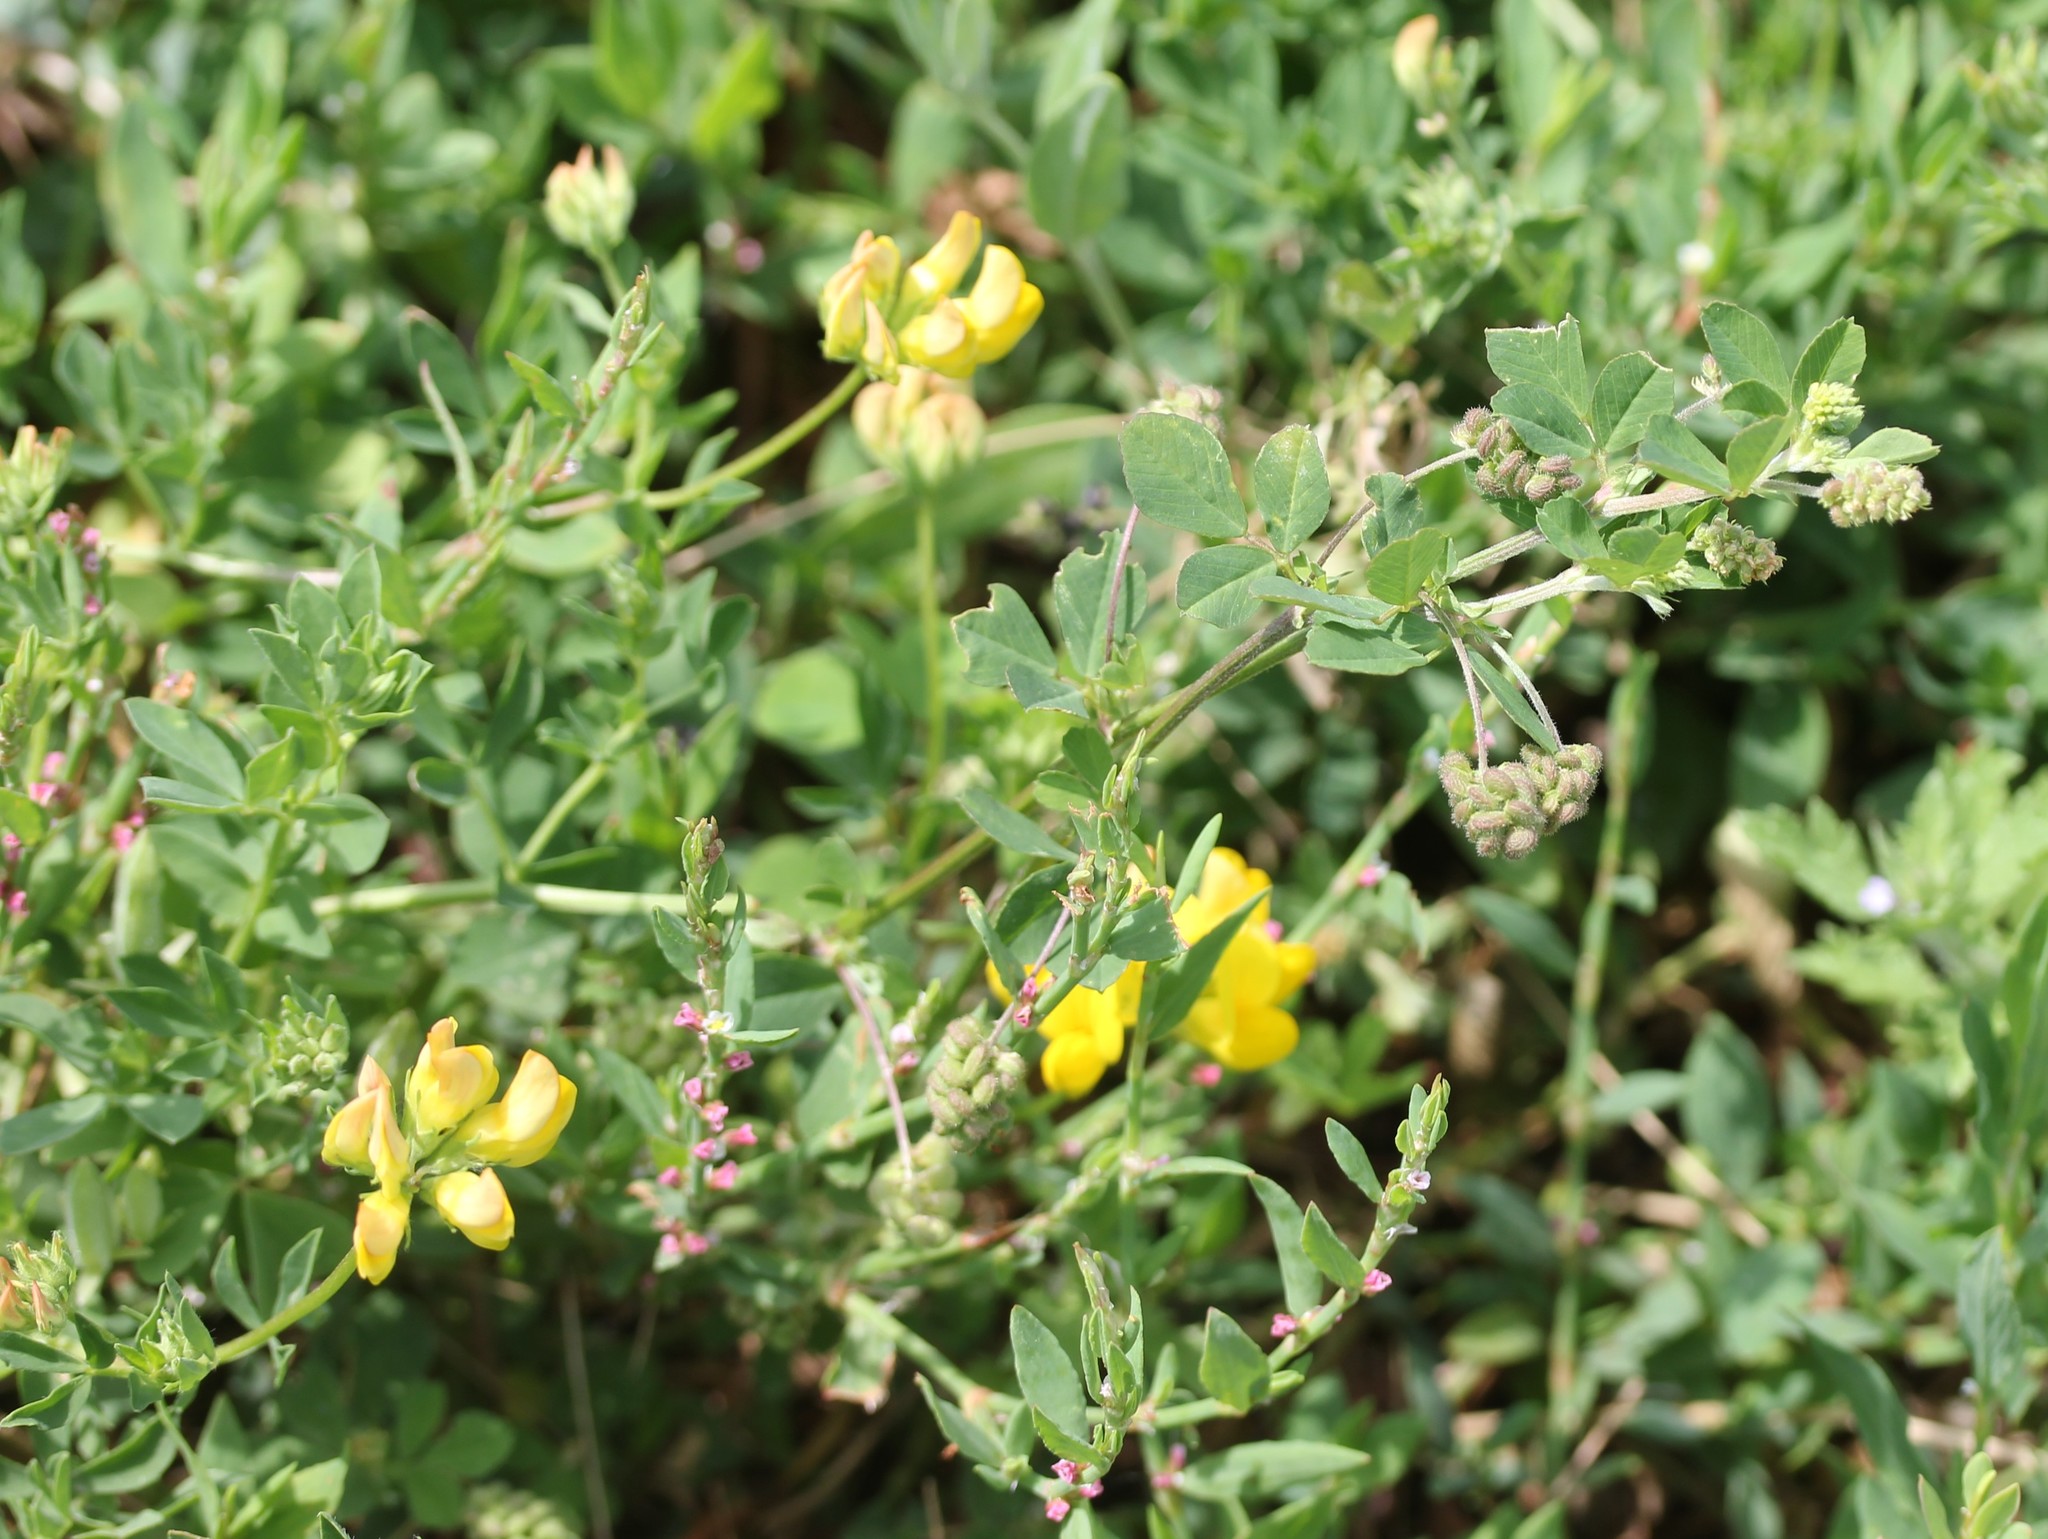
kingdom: Plantae
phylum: Tracheophyta
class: Magnoliopsida
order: Fabales
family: Fabaceae
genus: Lotus
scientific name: Lotus corniculatus
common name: Common bird's-foot-trefoil
